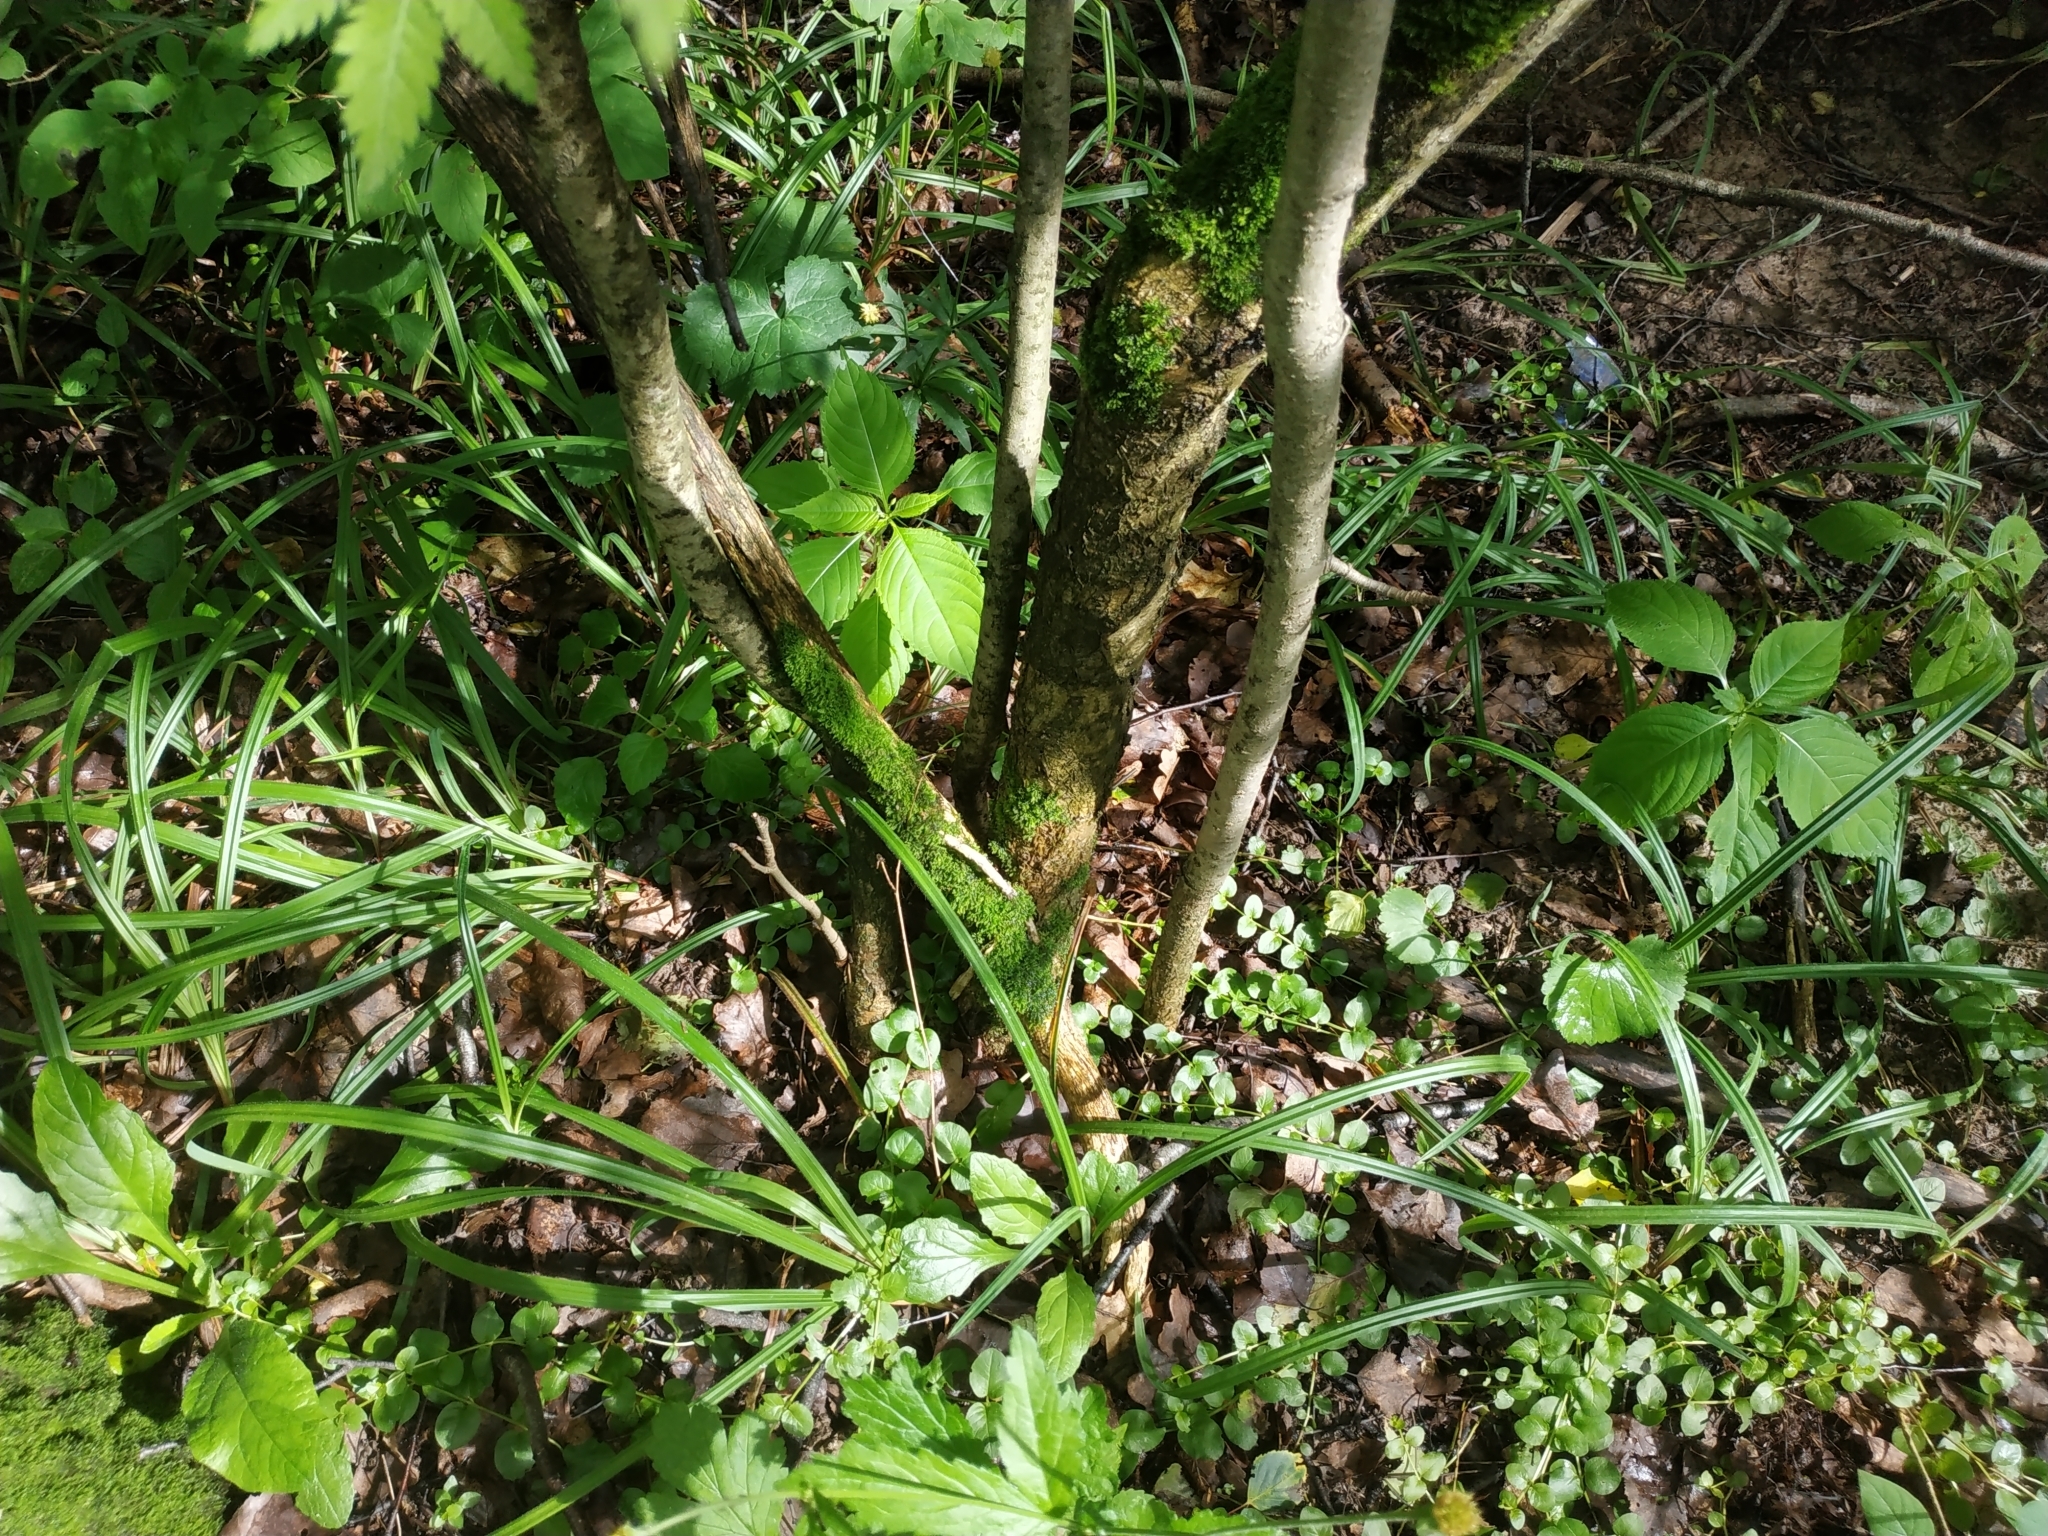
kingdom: Plantae
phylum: Tracheophyta
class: Magnoliopsida
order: Rosales
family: Rosaceae
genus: Sorbus
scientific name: Sorbus aucuparia
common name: Rowan
